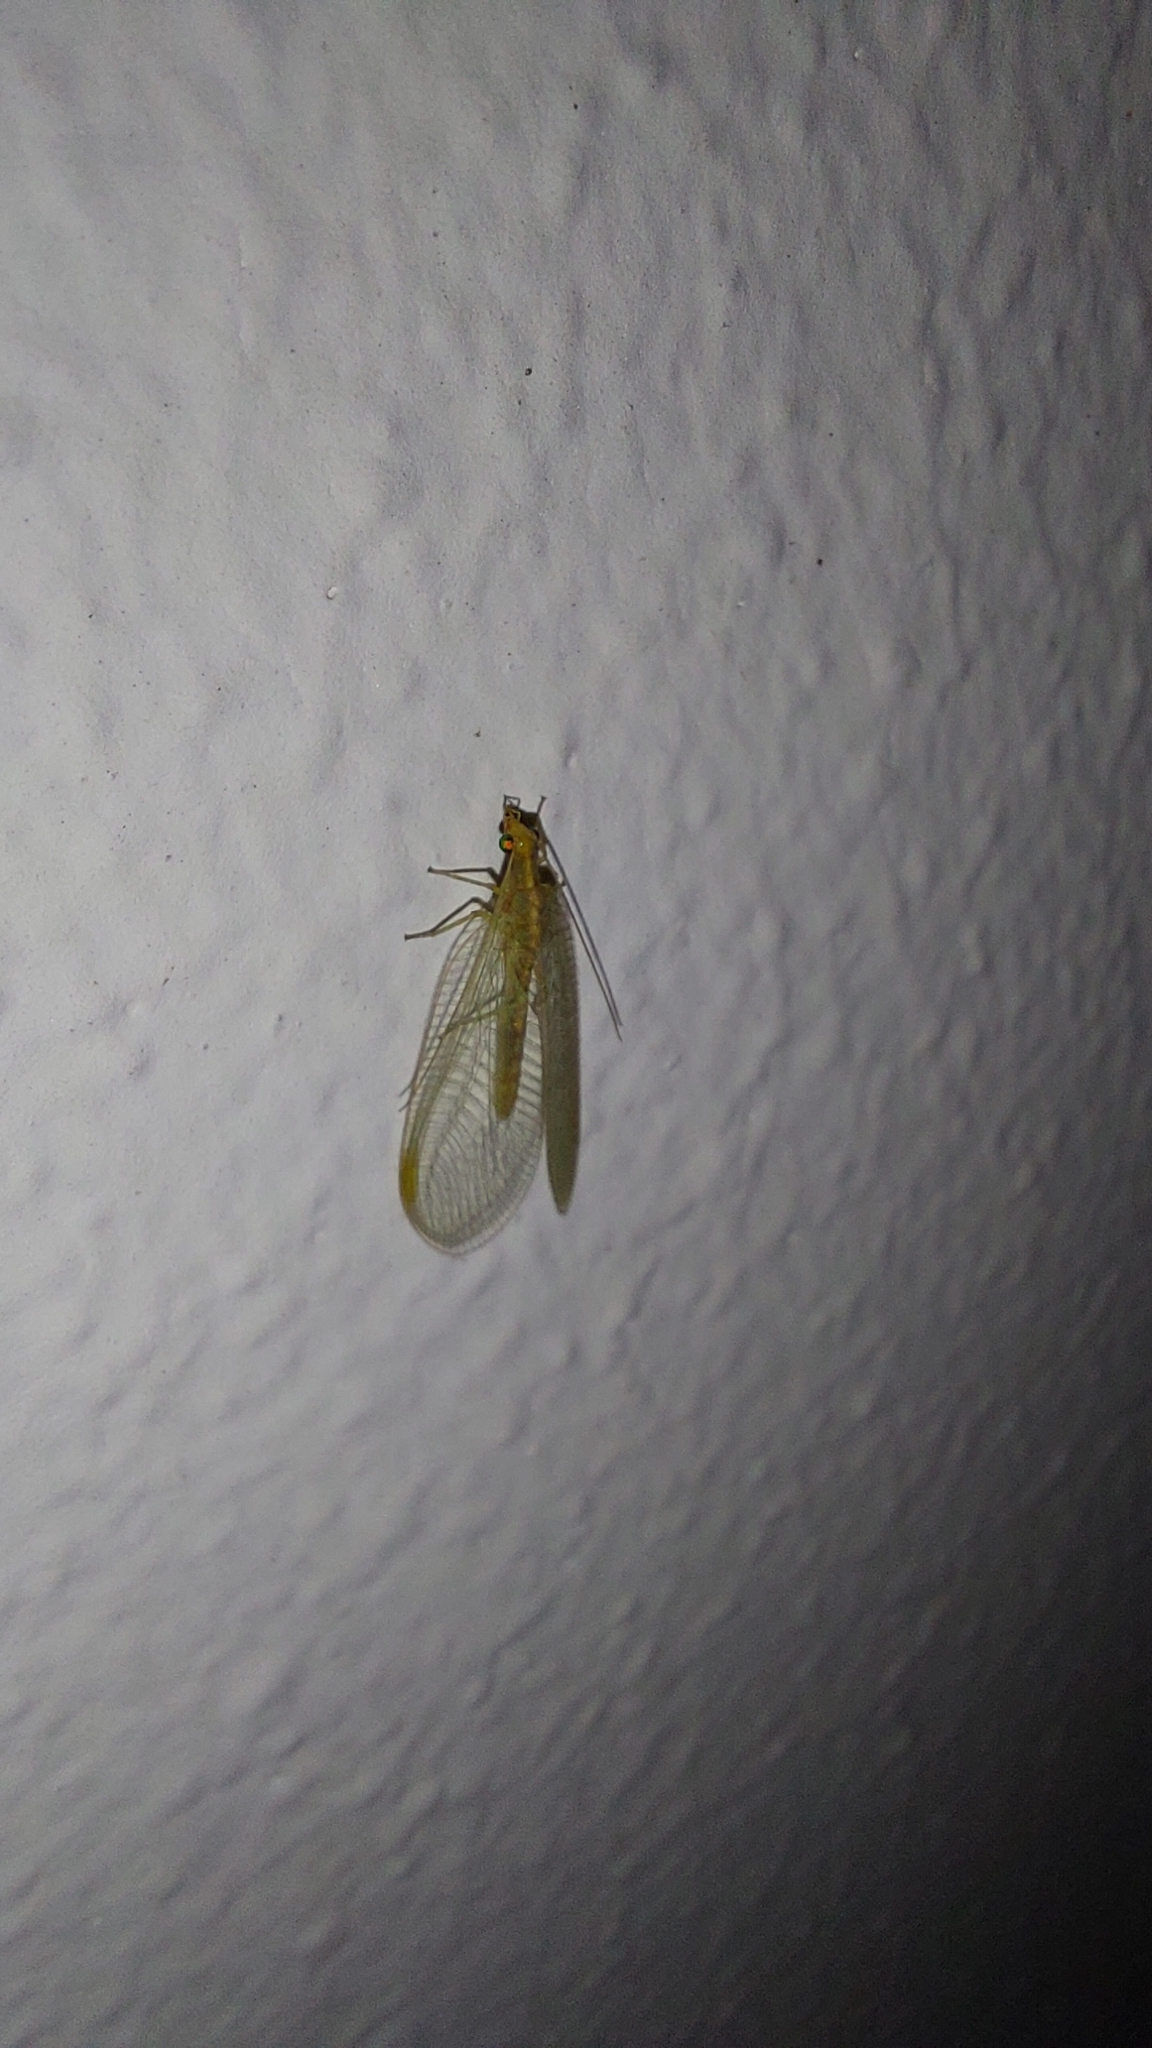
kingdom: Animalia
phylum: Arthropoda
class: Insecta
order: Neuroptera
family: Chrysopidae
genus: Chrysoperla
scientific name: Chrysoperla
